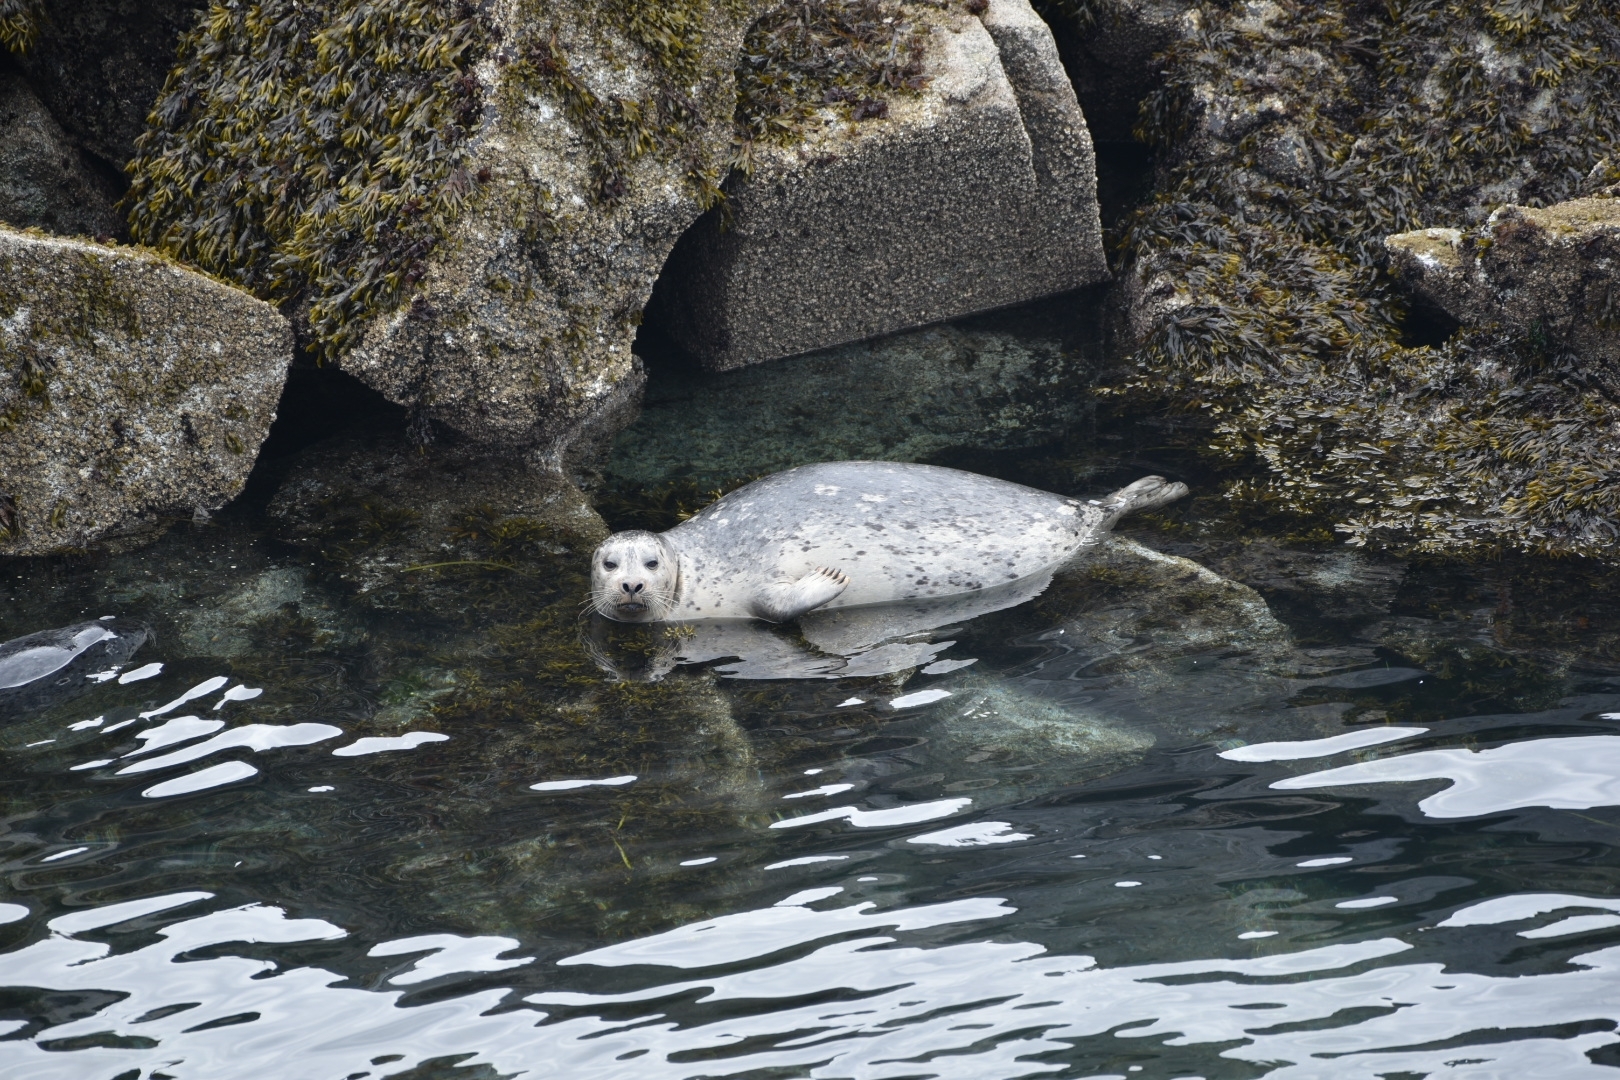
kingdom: Animalia
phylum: Chordata
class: Mammalia
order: Carnivora
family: Phocidae
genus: Phoca
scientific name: Phoca vitulina
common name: Harbor seal
